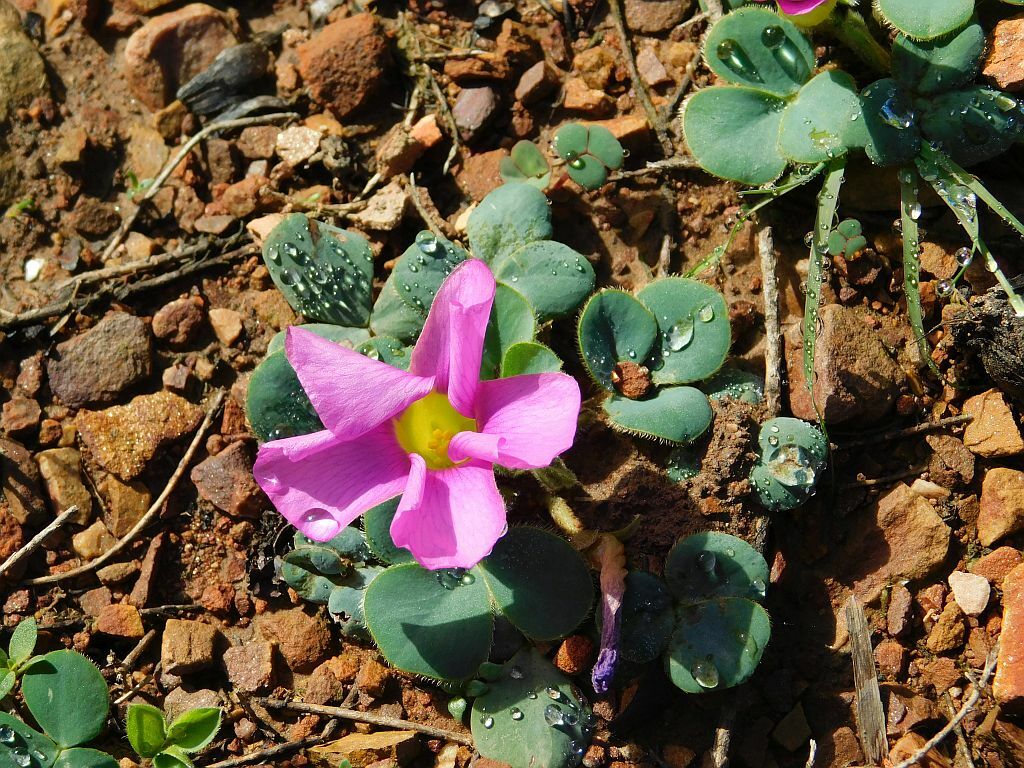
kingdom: Plantae
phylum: Tracheophyta
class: Magnoliopsida
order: Oxalidales
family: Oxalidaceae
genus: Oxalis
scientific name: Oxalis purpurea
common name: Purple woodsorrel
